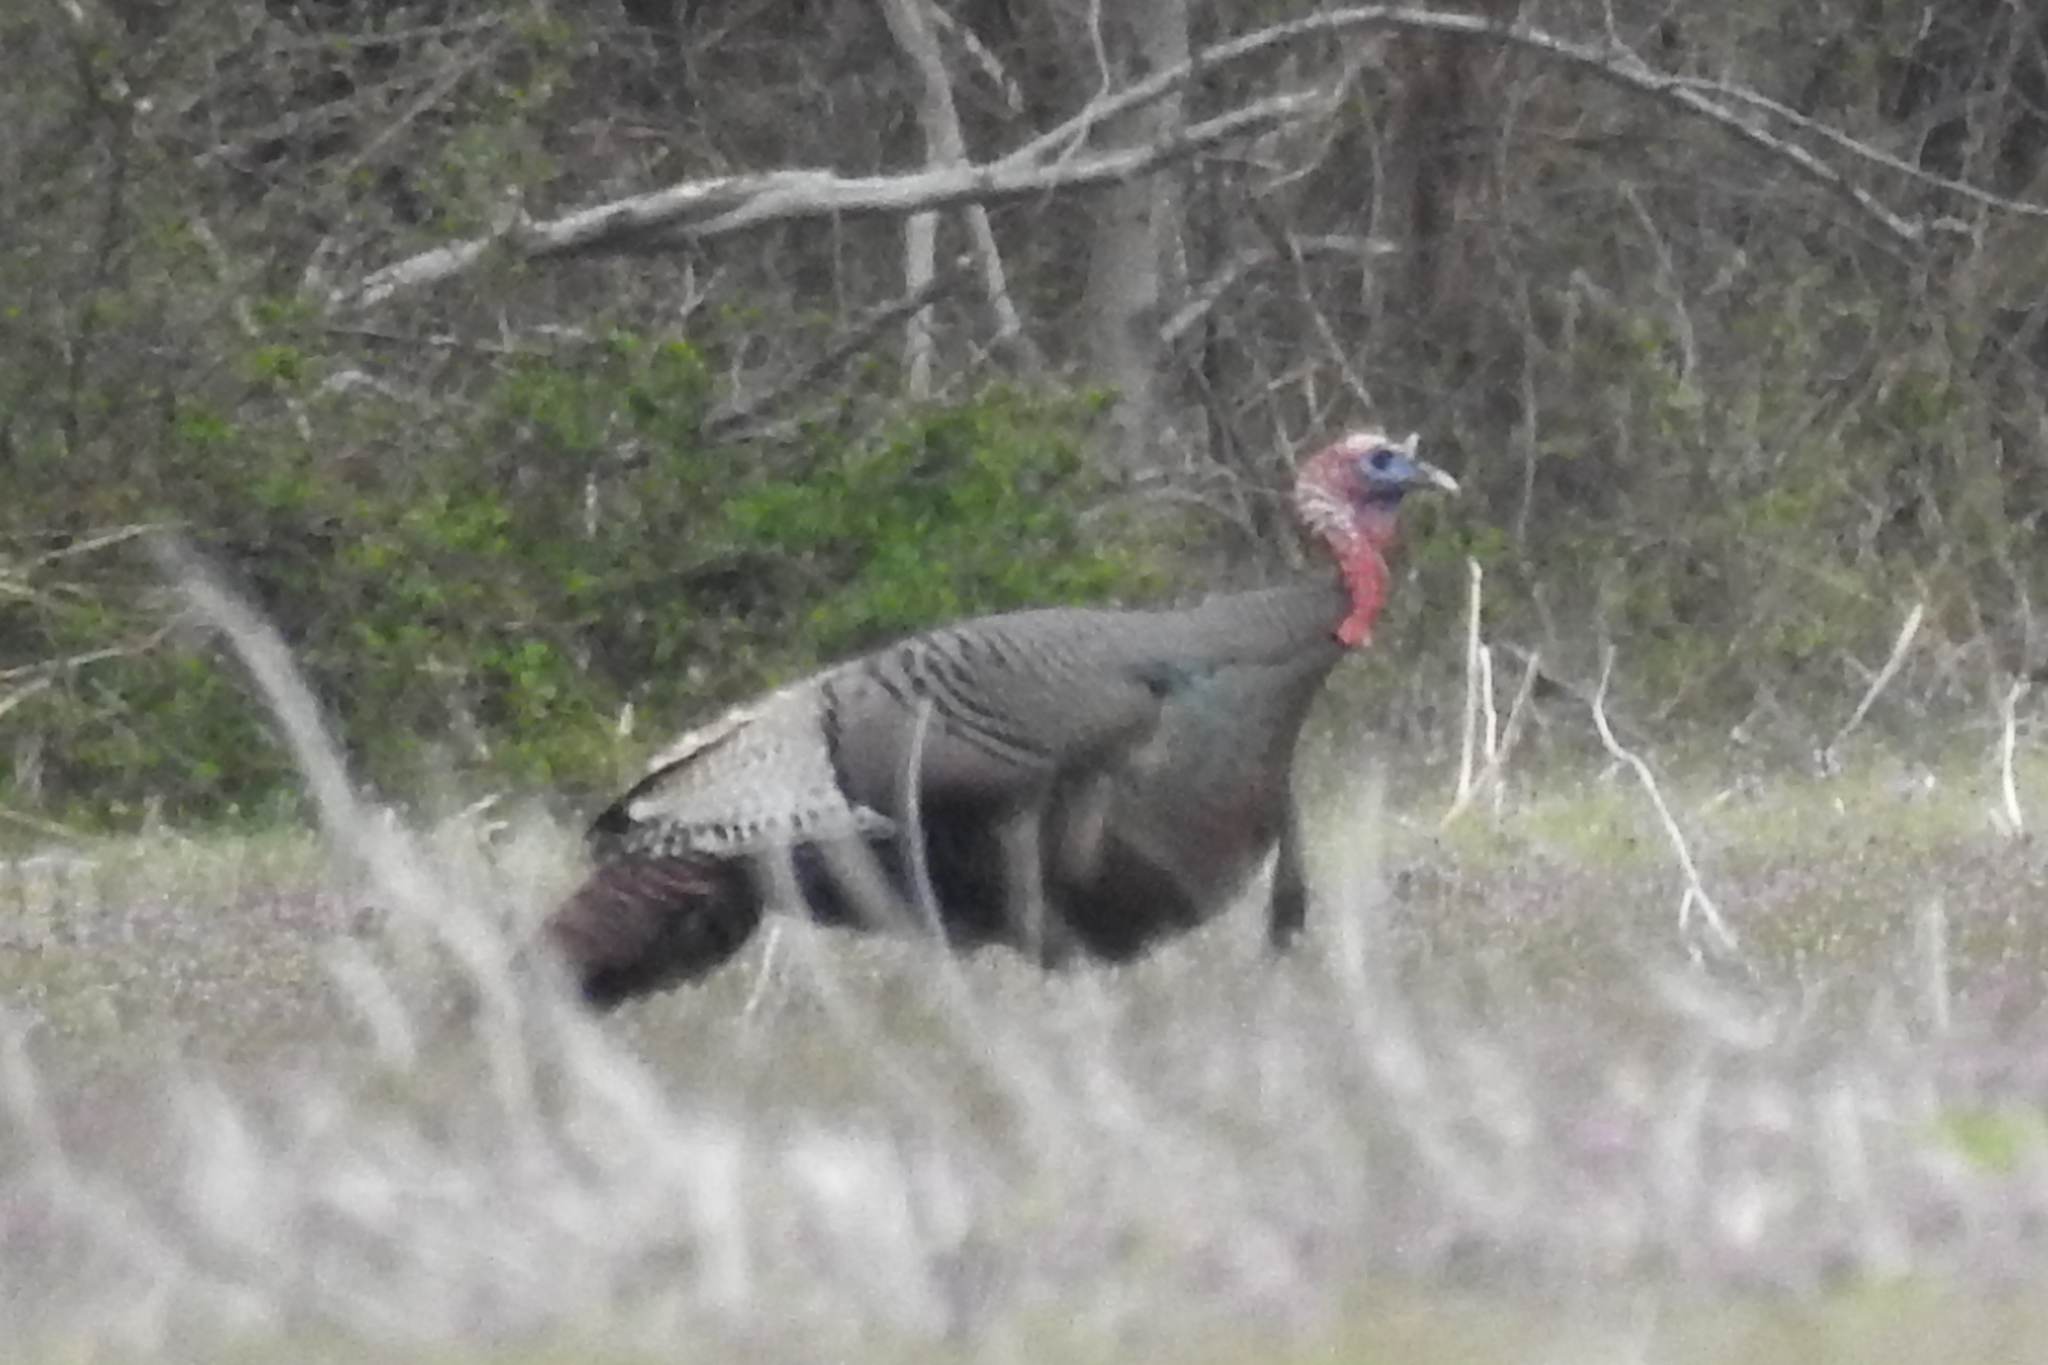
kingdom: Animalia
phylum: Chordata
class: Aves
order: Galliformes
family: Phasianidae
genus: Meleagris
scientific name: Meleagris gallopavo
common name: Wild turkey
